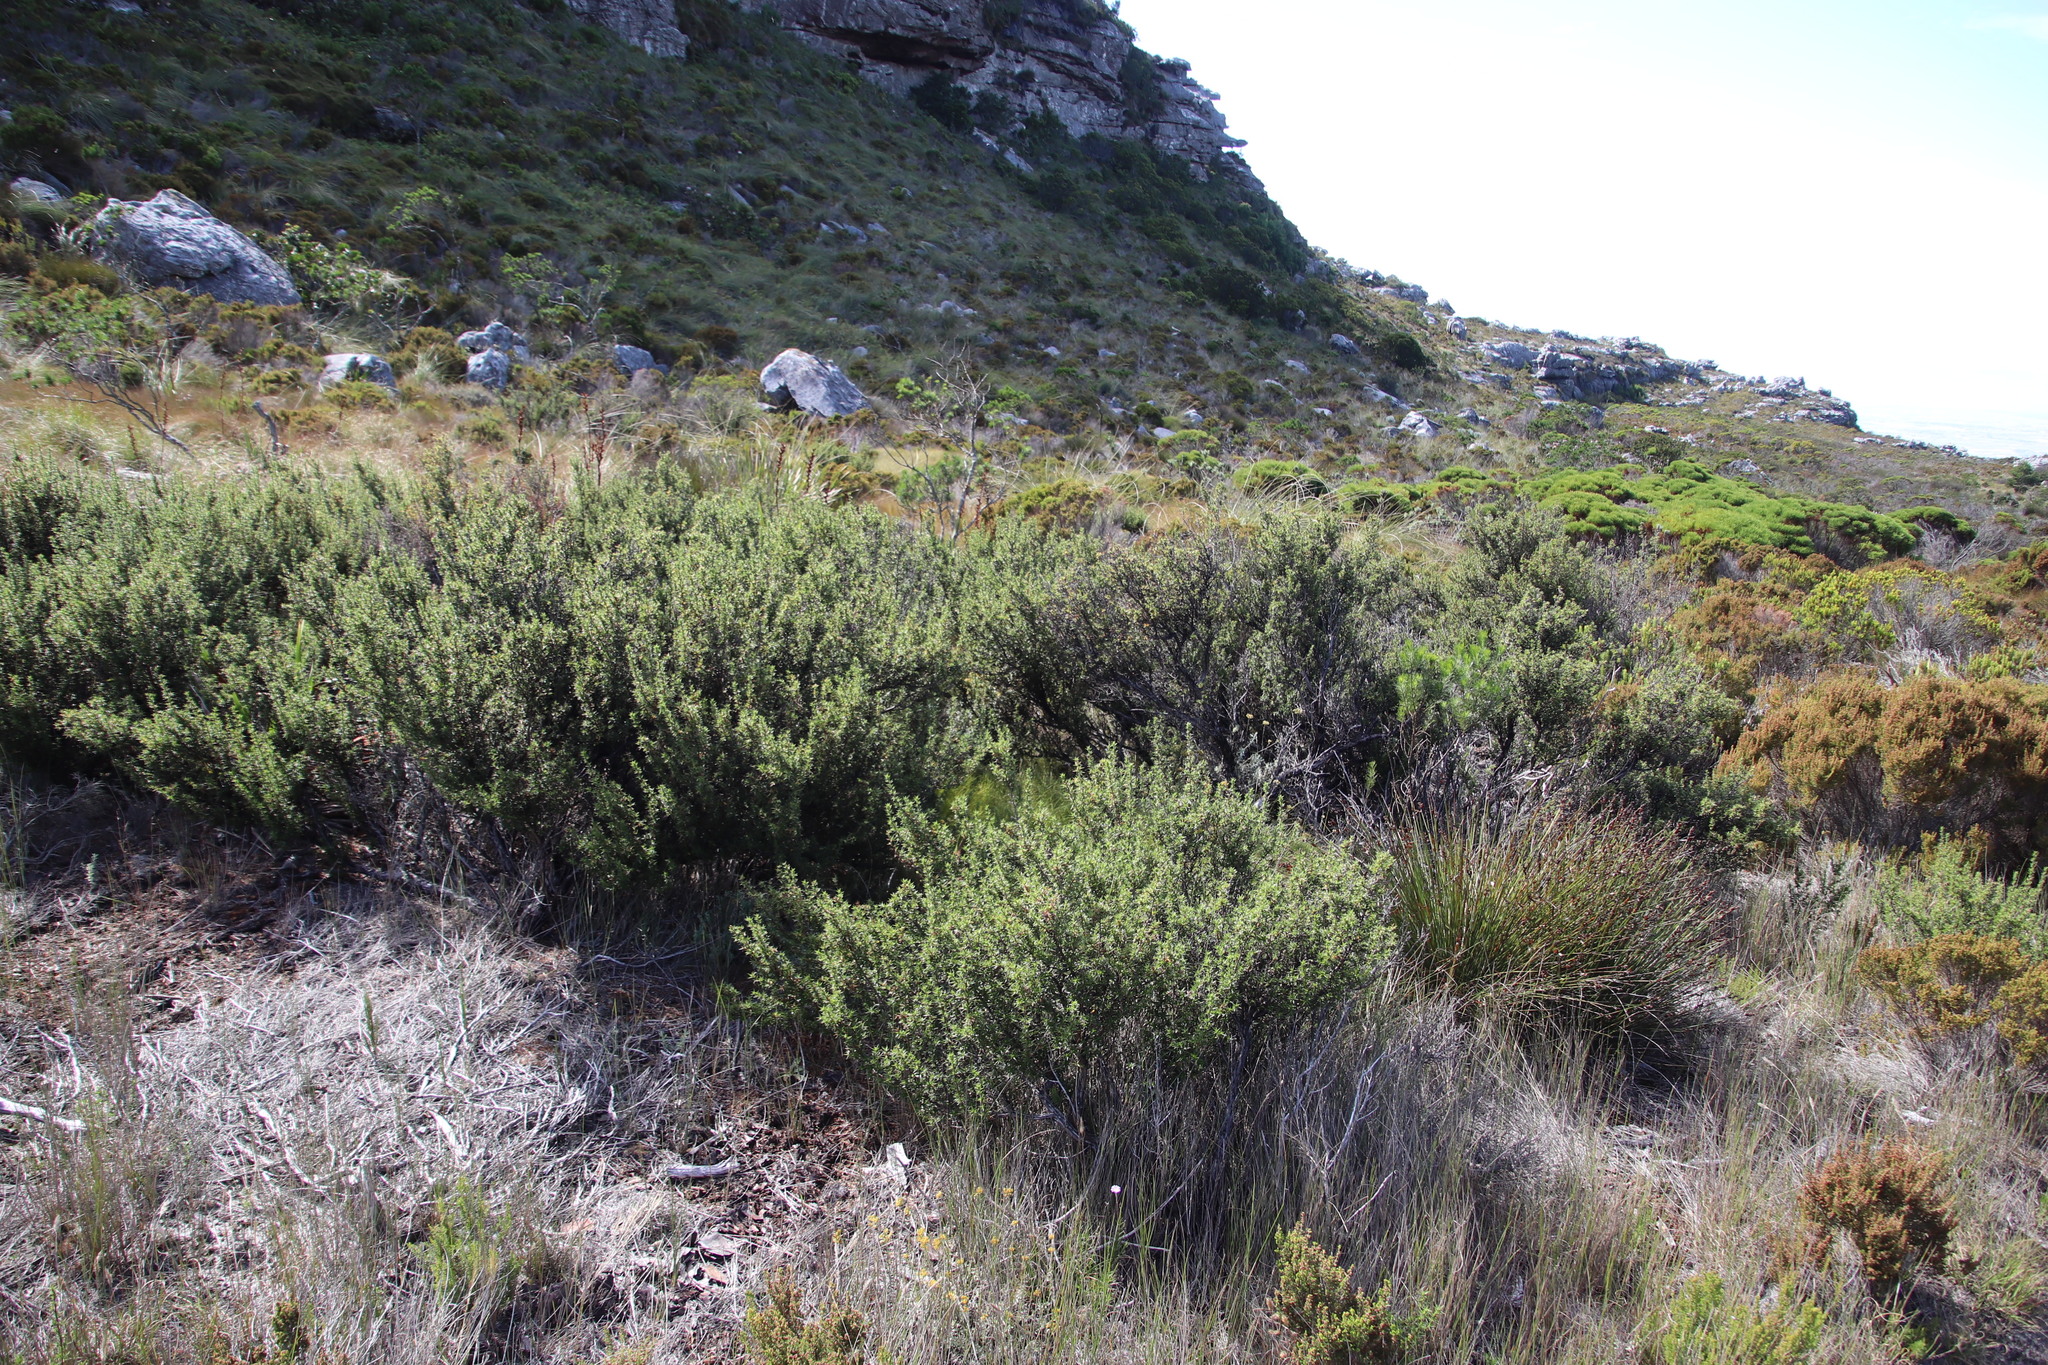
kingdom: Plantae
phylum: Tracheophyta
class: Magnoliopsida
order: Rosales
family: Rosaceae
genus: Cliffortia
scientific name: Cliffortia ruscifolia
